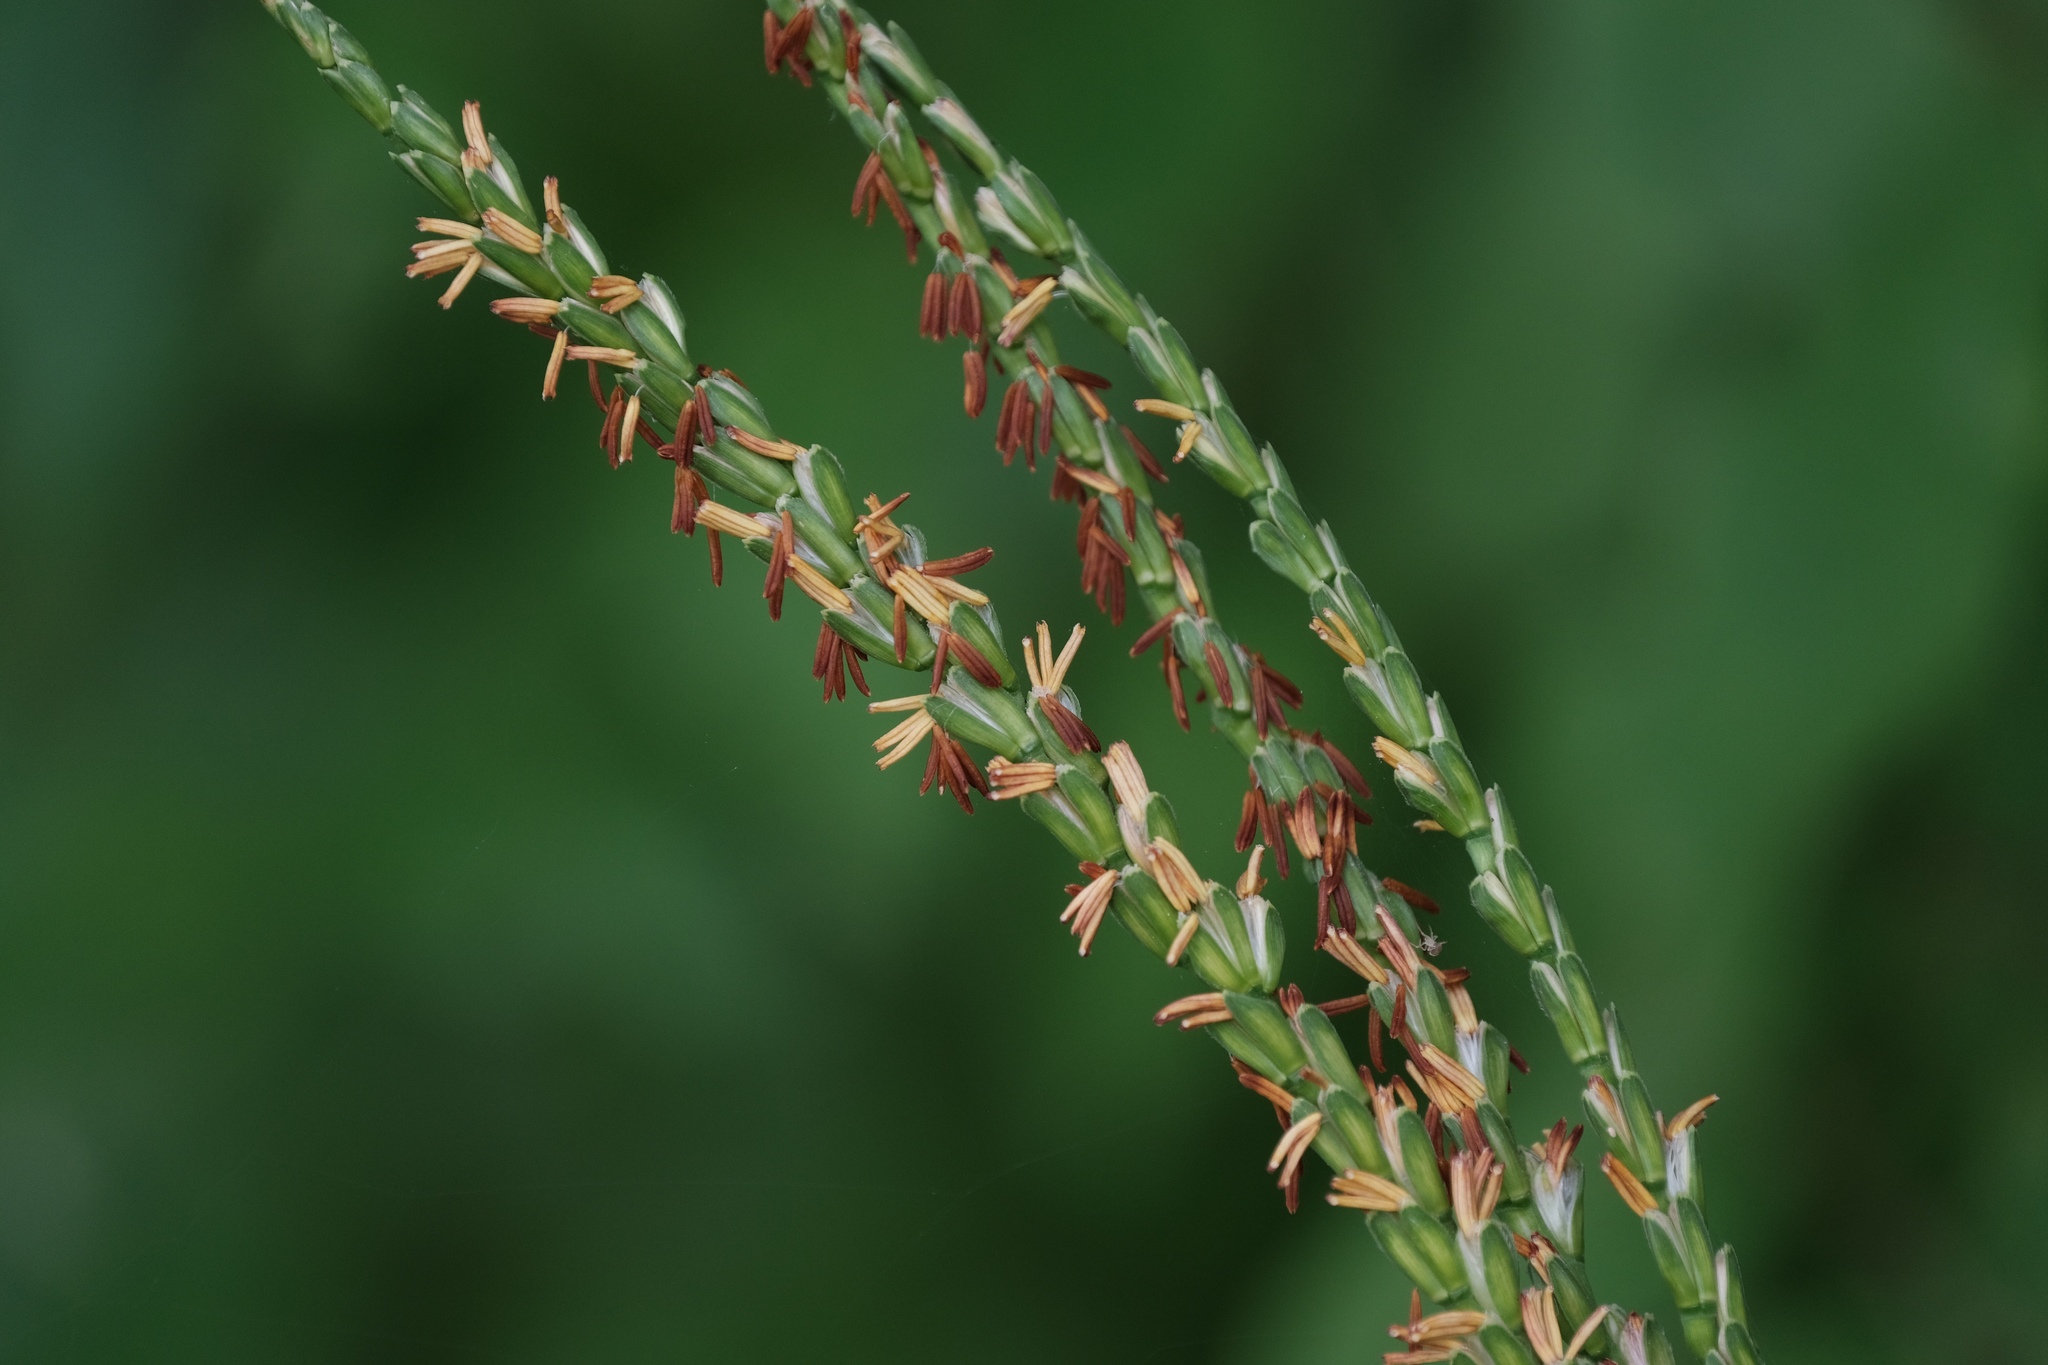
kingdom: Plantae
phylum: Tracheophyta
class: Liliopsida
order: Poales
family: Poaceae
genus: Tripsacum
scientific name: Tripsacum dactyloides
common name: Buffalo-grass
